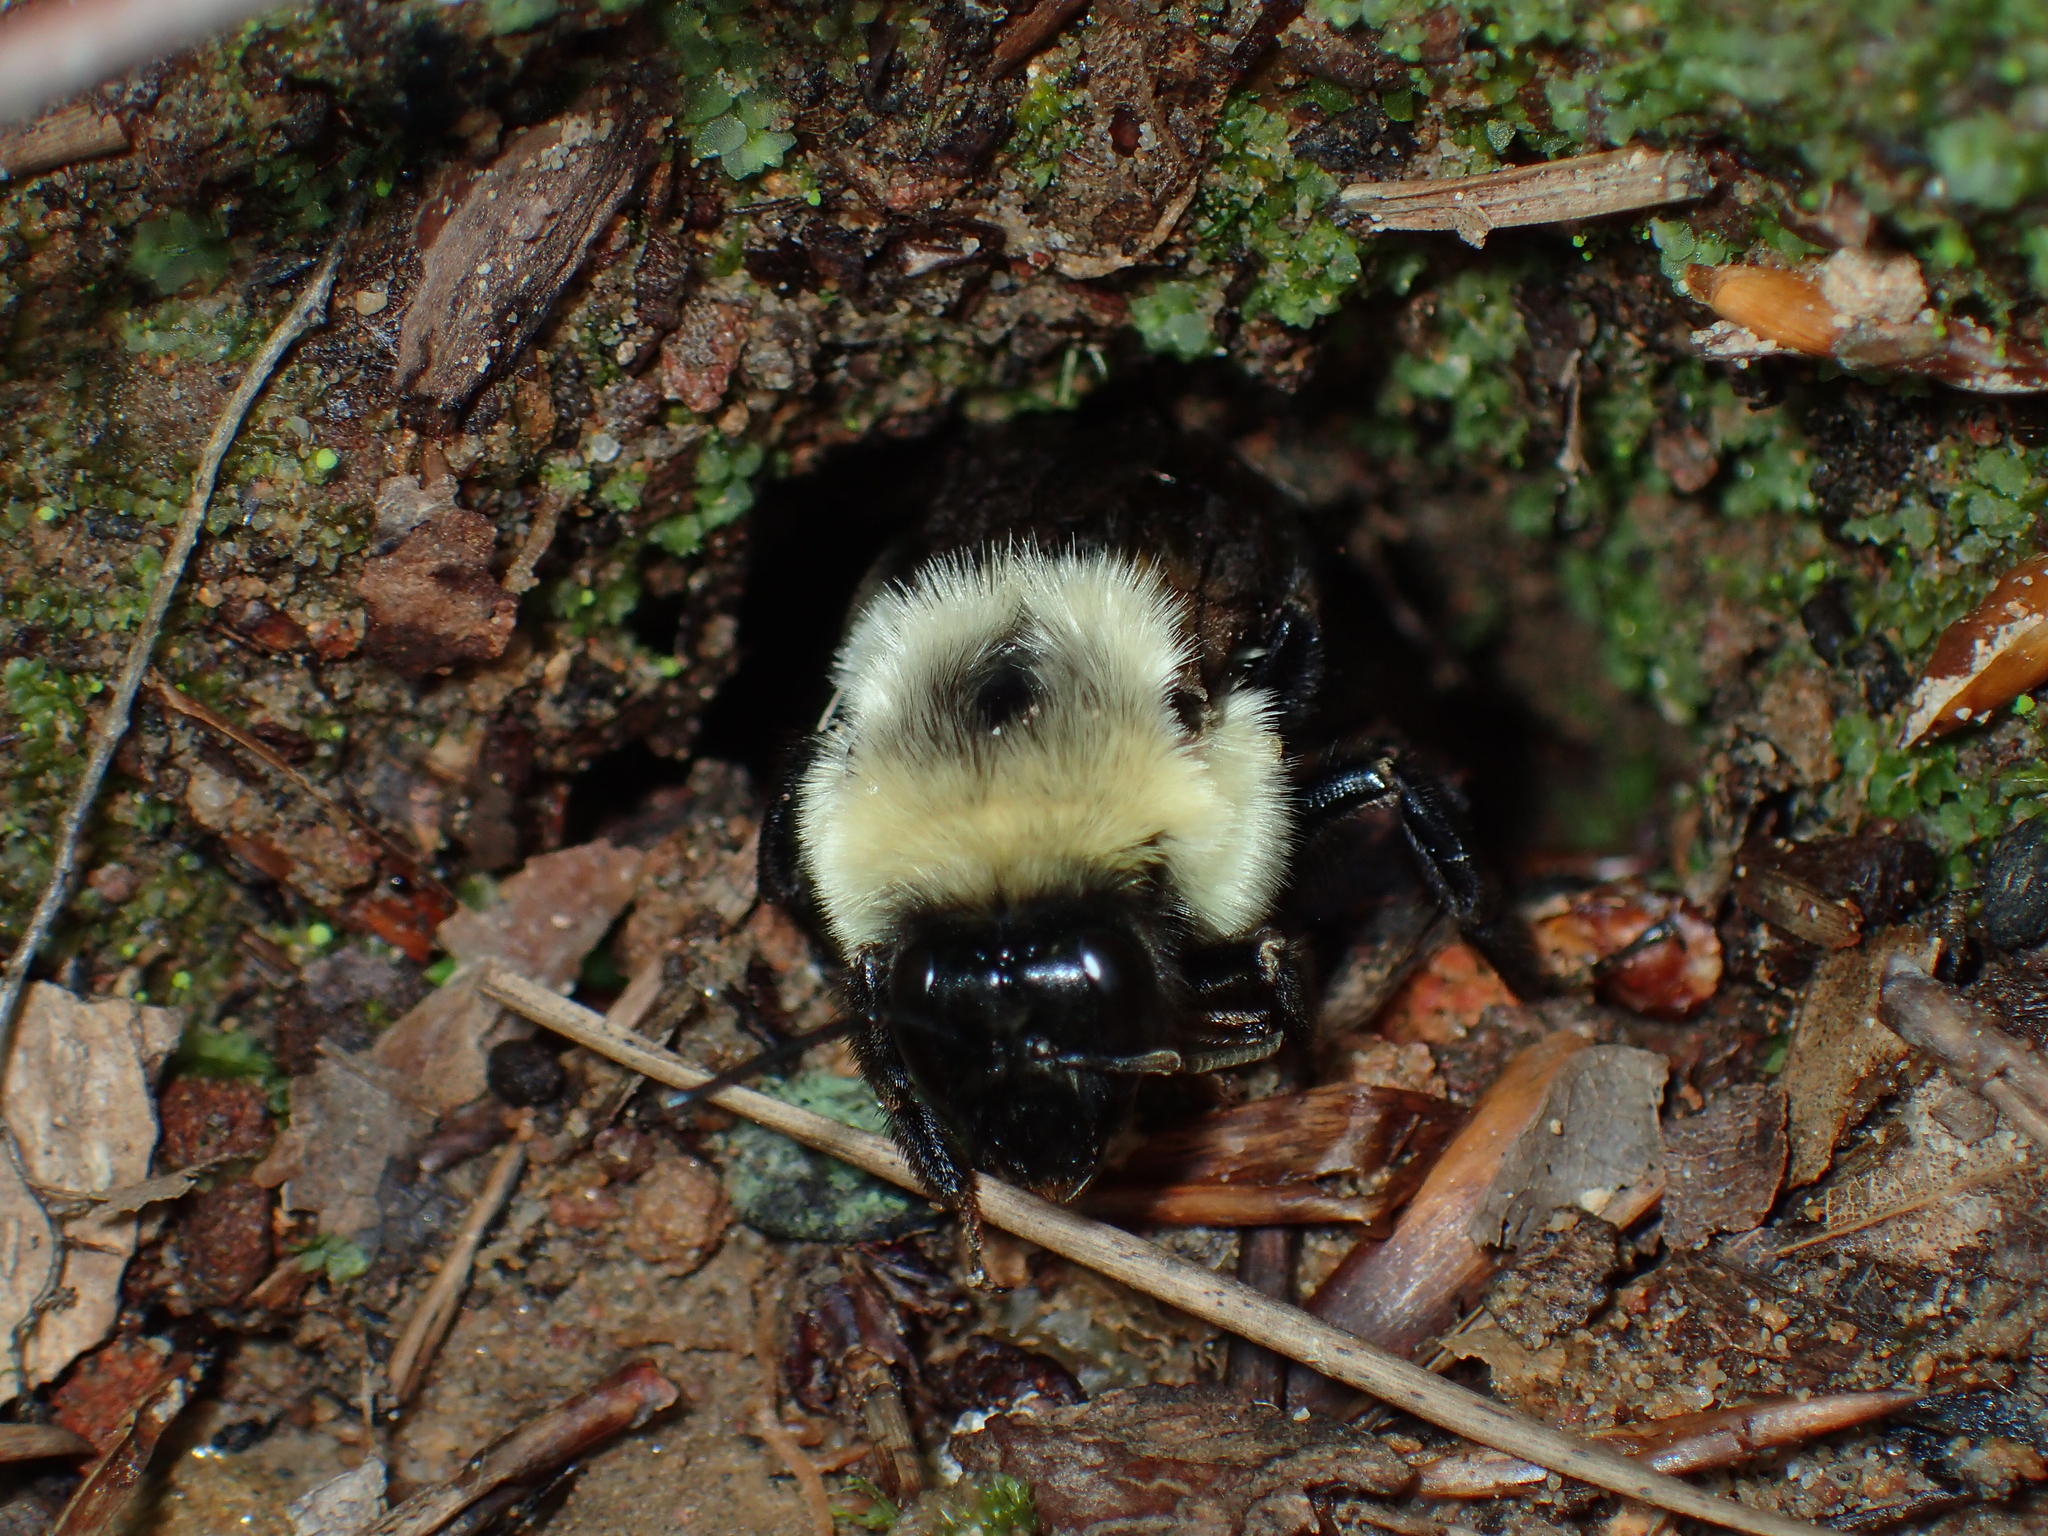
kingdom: Animalia
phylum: Arthropoda
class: Insecta
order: Hymenoptera
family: Apidae
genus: Bombus
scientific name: Bombus impatiens
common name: Common eastern bumble bee
